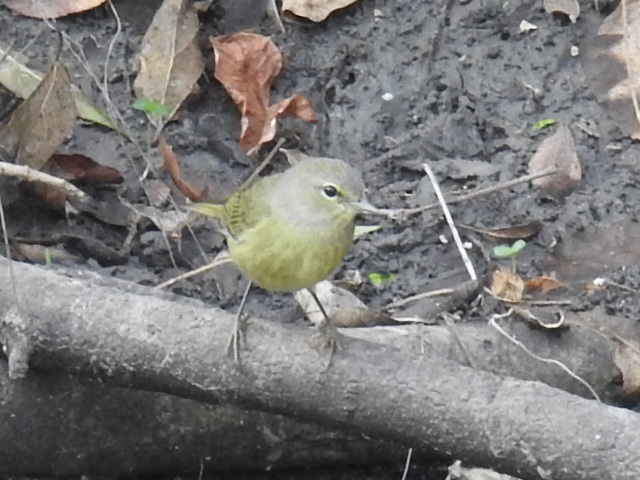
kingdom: Animalia
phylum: Chordata
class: Aves
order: Passeriformes
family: Parulidae
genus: Leiothlypis
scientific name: Leiothlypis celata
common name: Orange-crowned warbler
